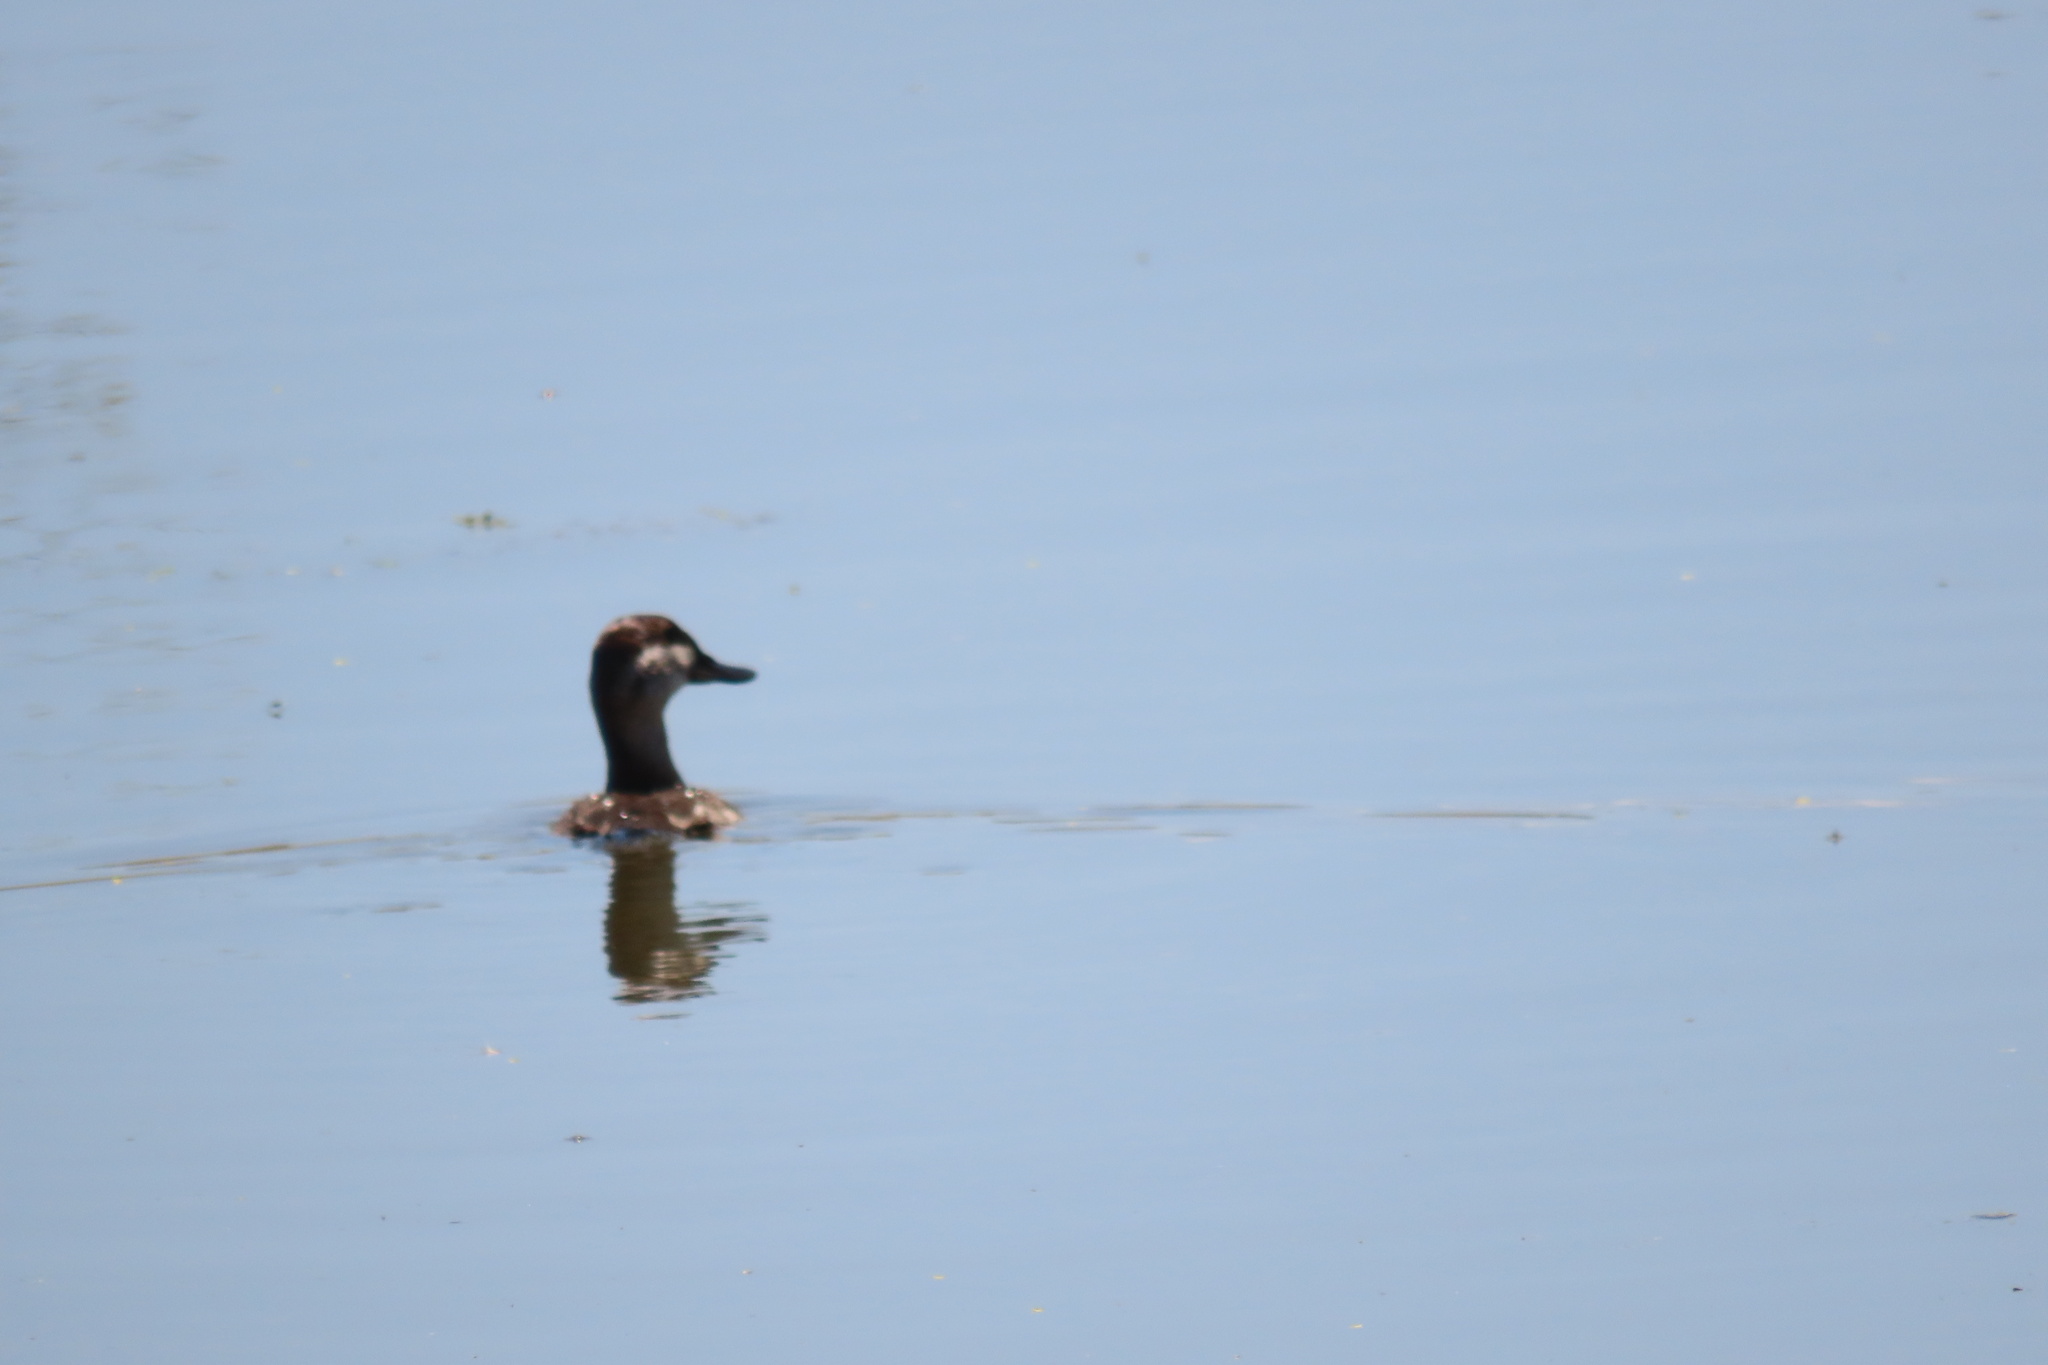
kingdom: Animalia
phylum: Chordata
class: Aves
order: Anseriformes
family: Anatidae
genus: Oxyura
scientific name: Oxyura jamaicensis
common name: Ruddy duck
